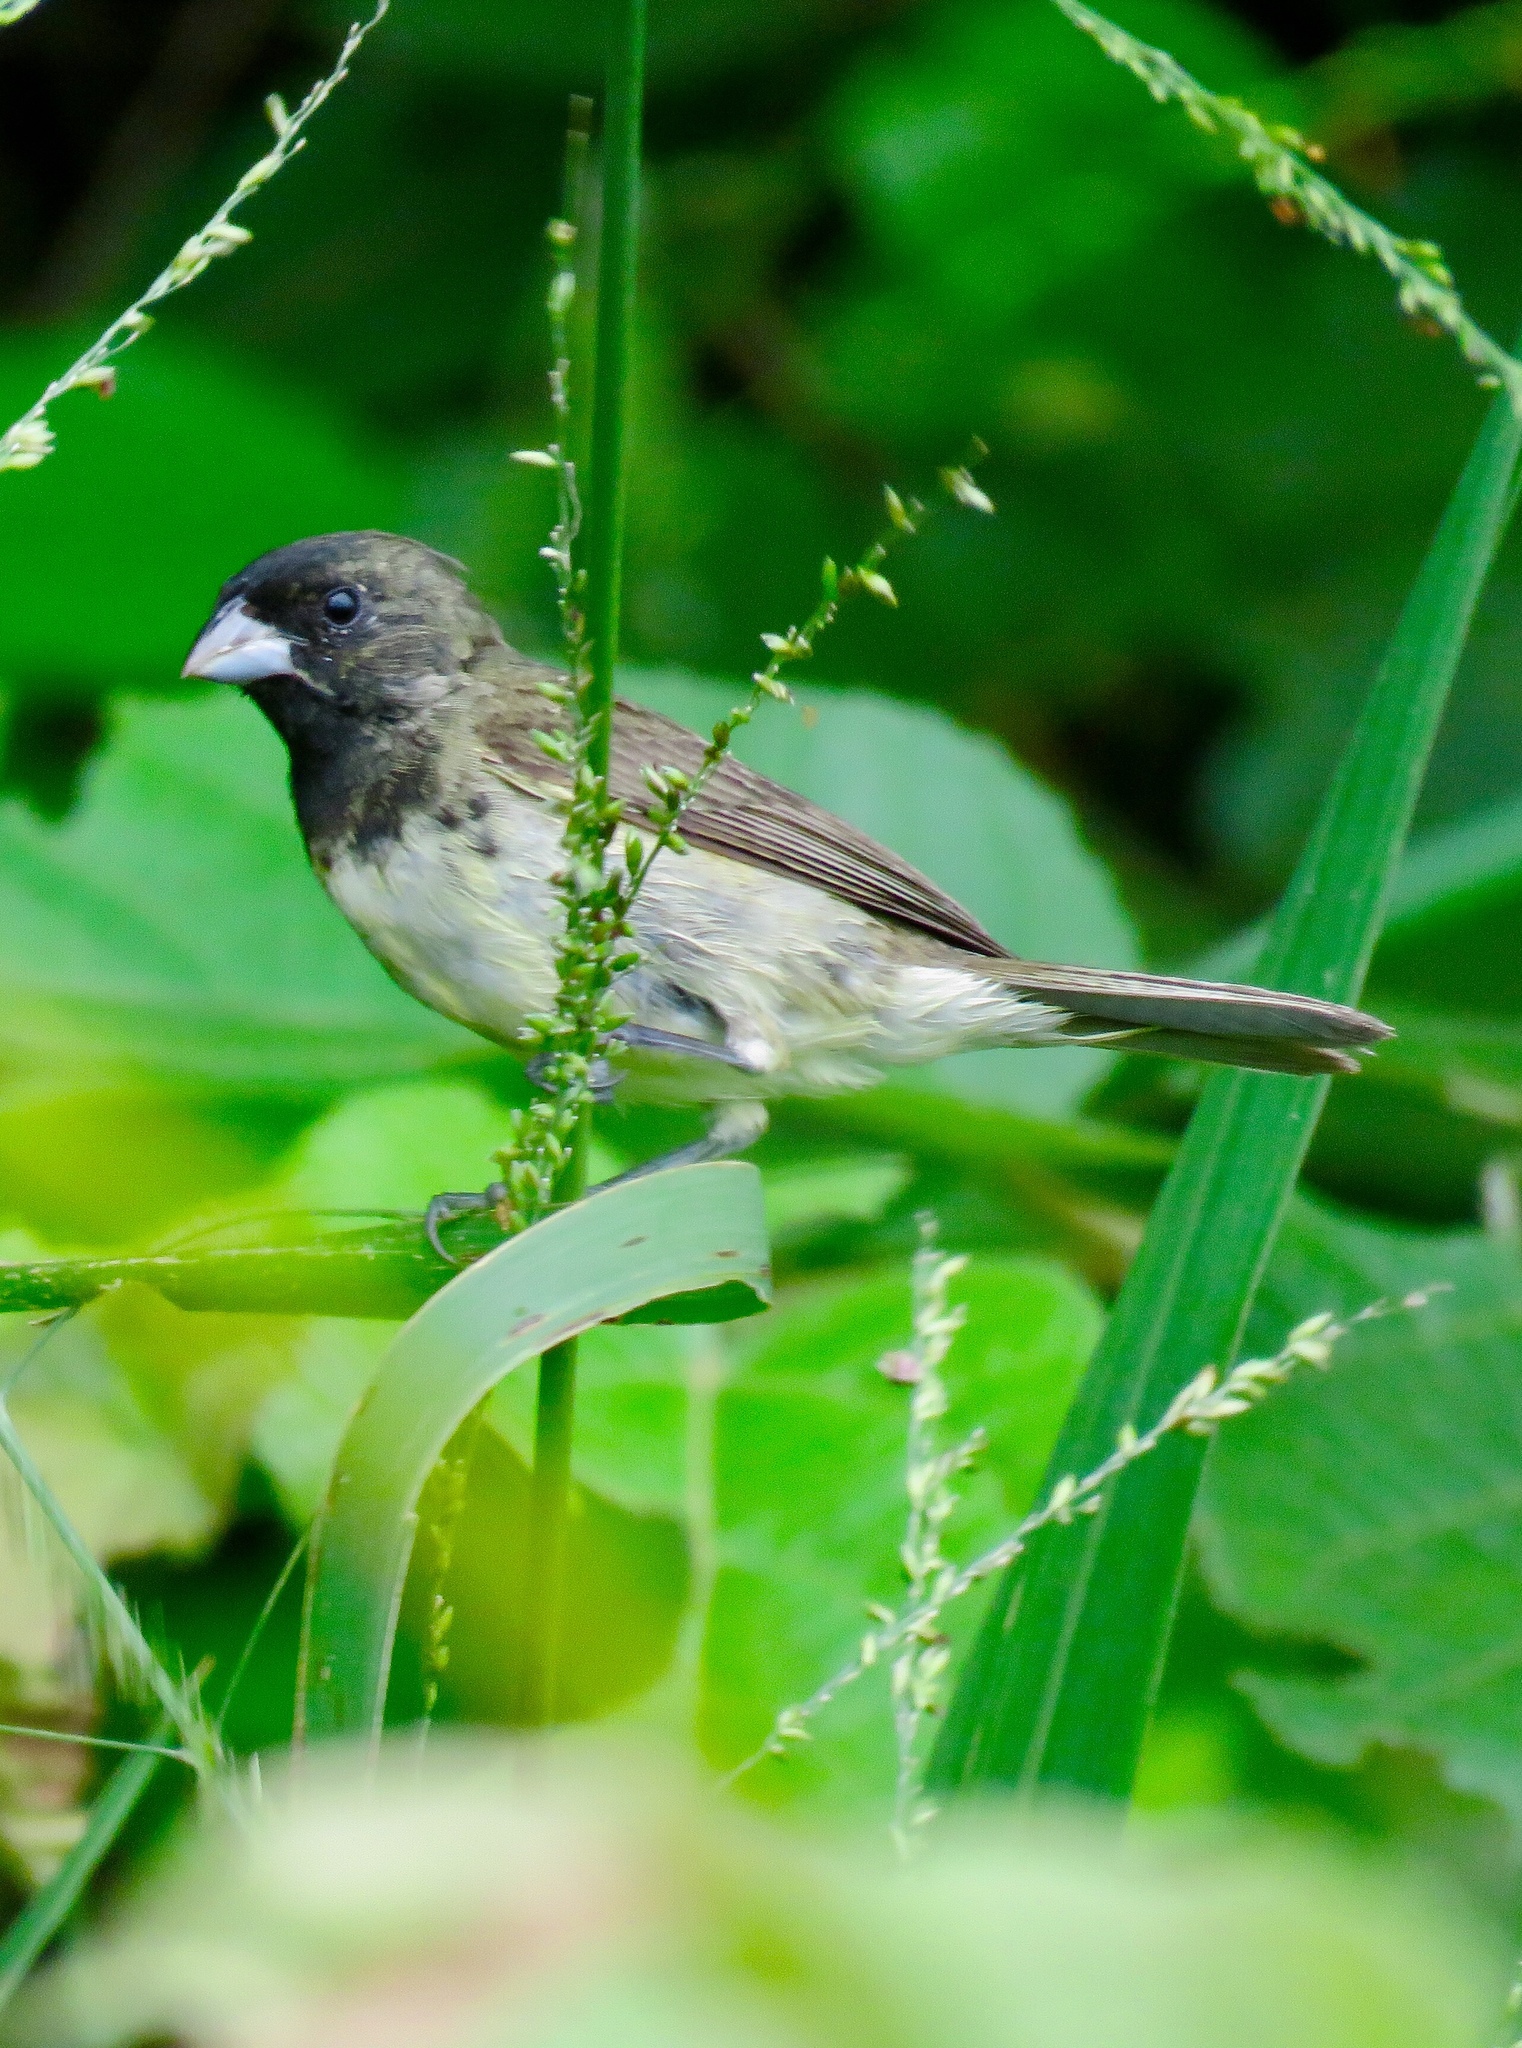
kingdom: Animalia
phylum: Chordata
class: Aves
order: Passeriformes
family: Thraupidae
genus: Sporophila
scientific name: Sporophila nigricollis
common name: Yellow-bellied seedeater
